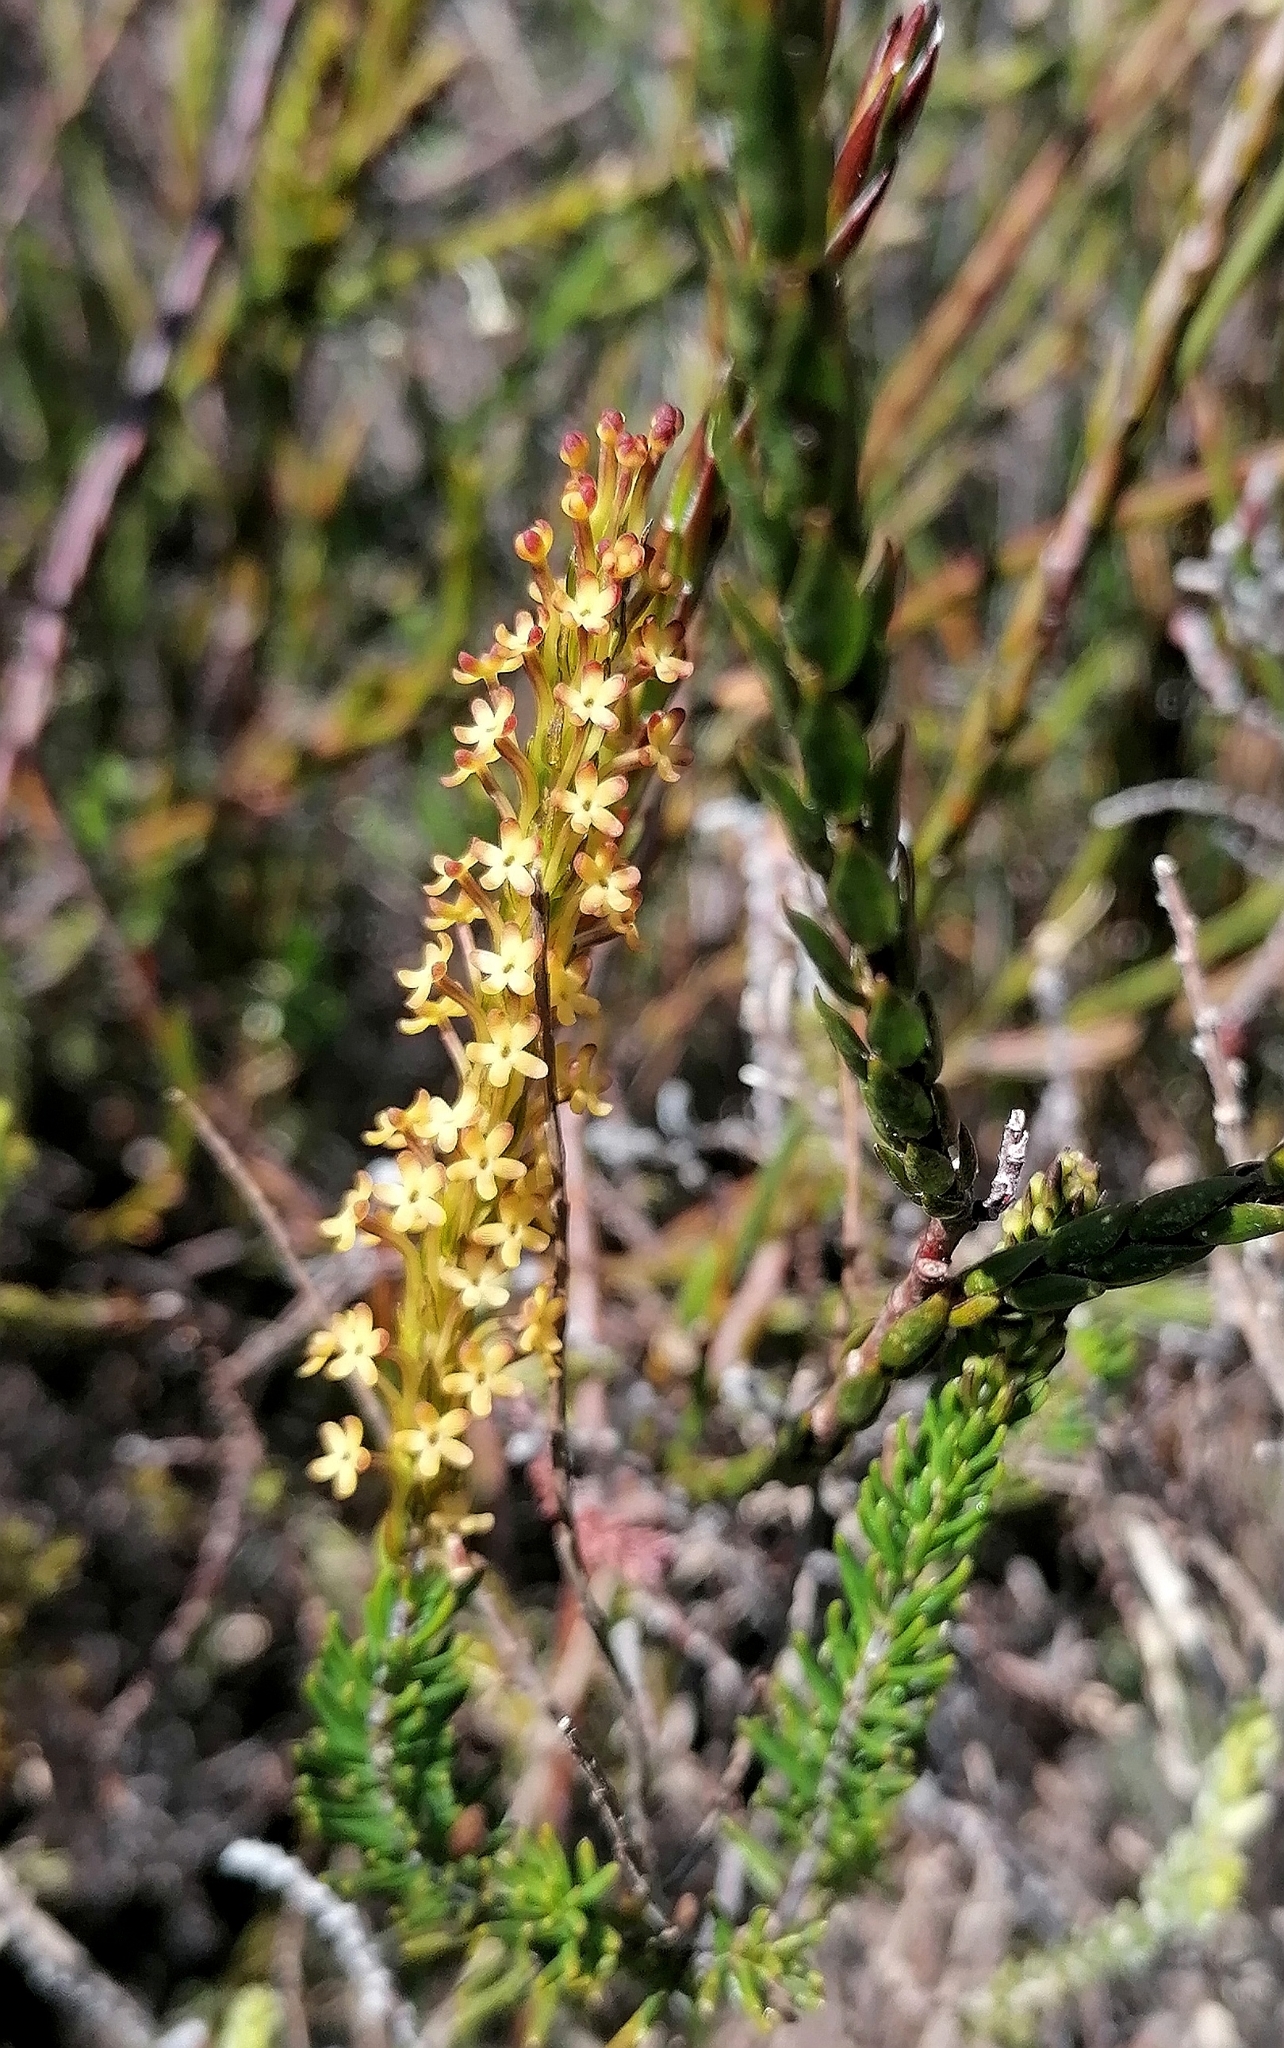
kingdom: Plantae
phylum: Tracheophyta
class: Magnoliopsida
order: Lamiales
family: Scrophulariaceae
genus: Microdon
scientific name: Microdon dubius
